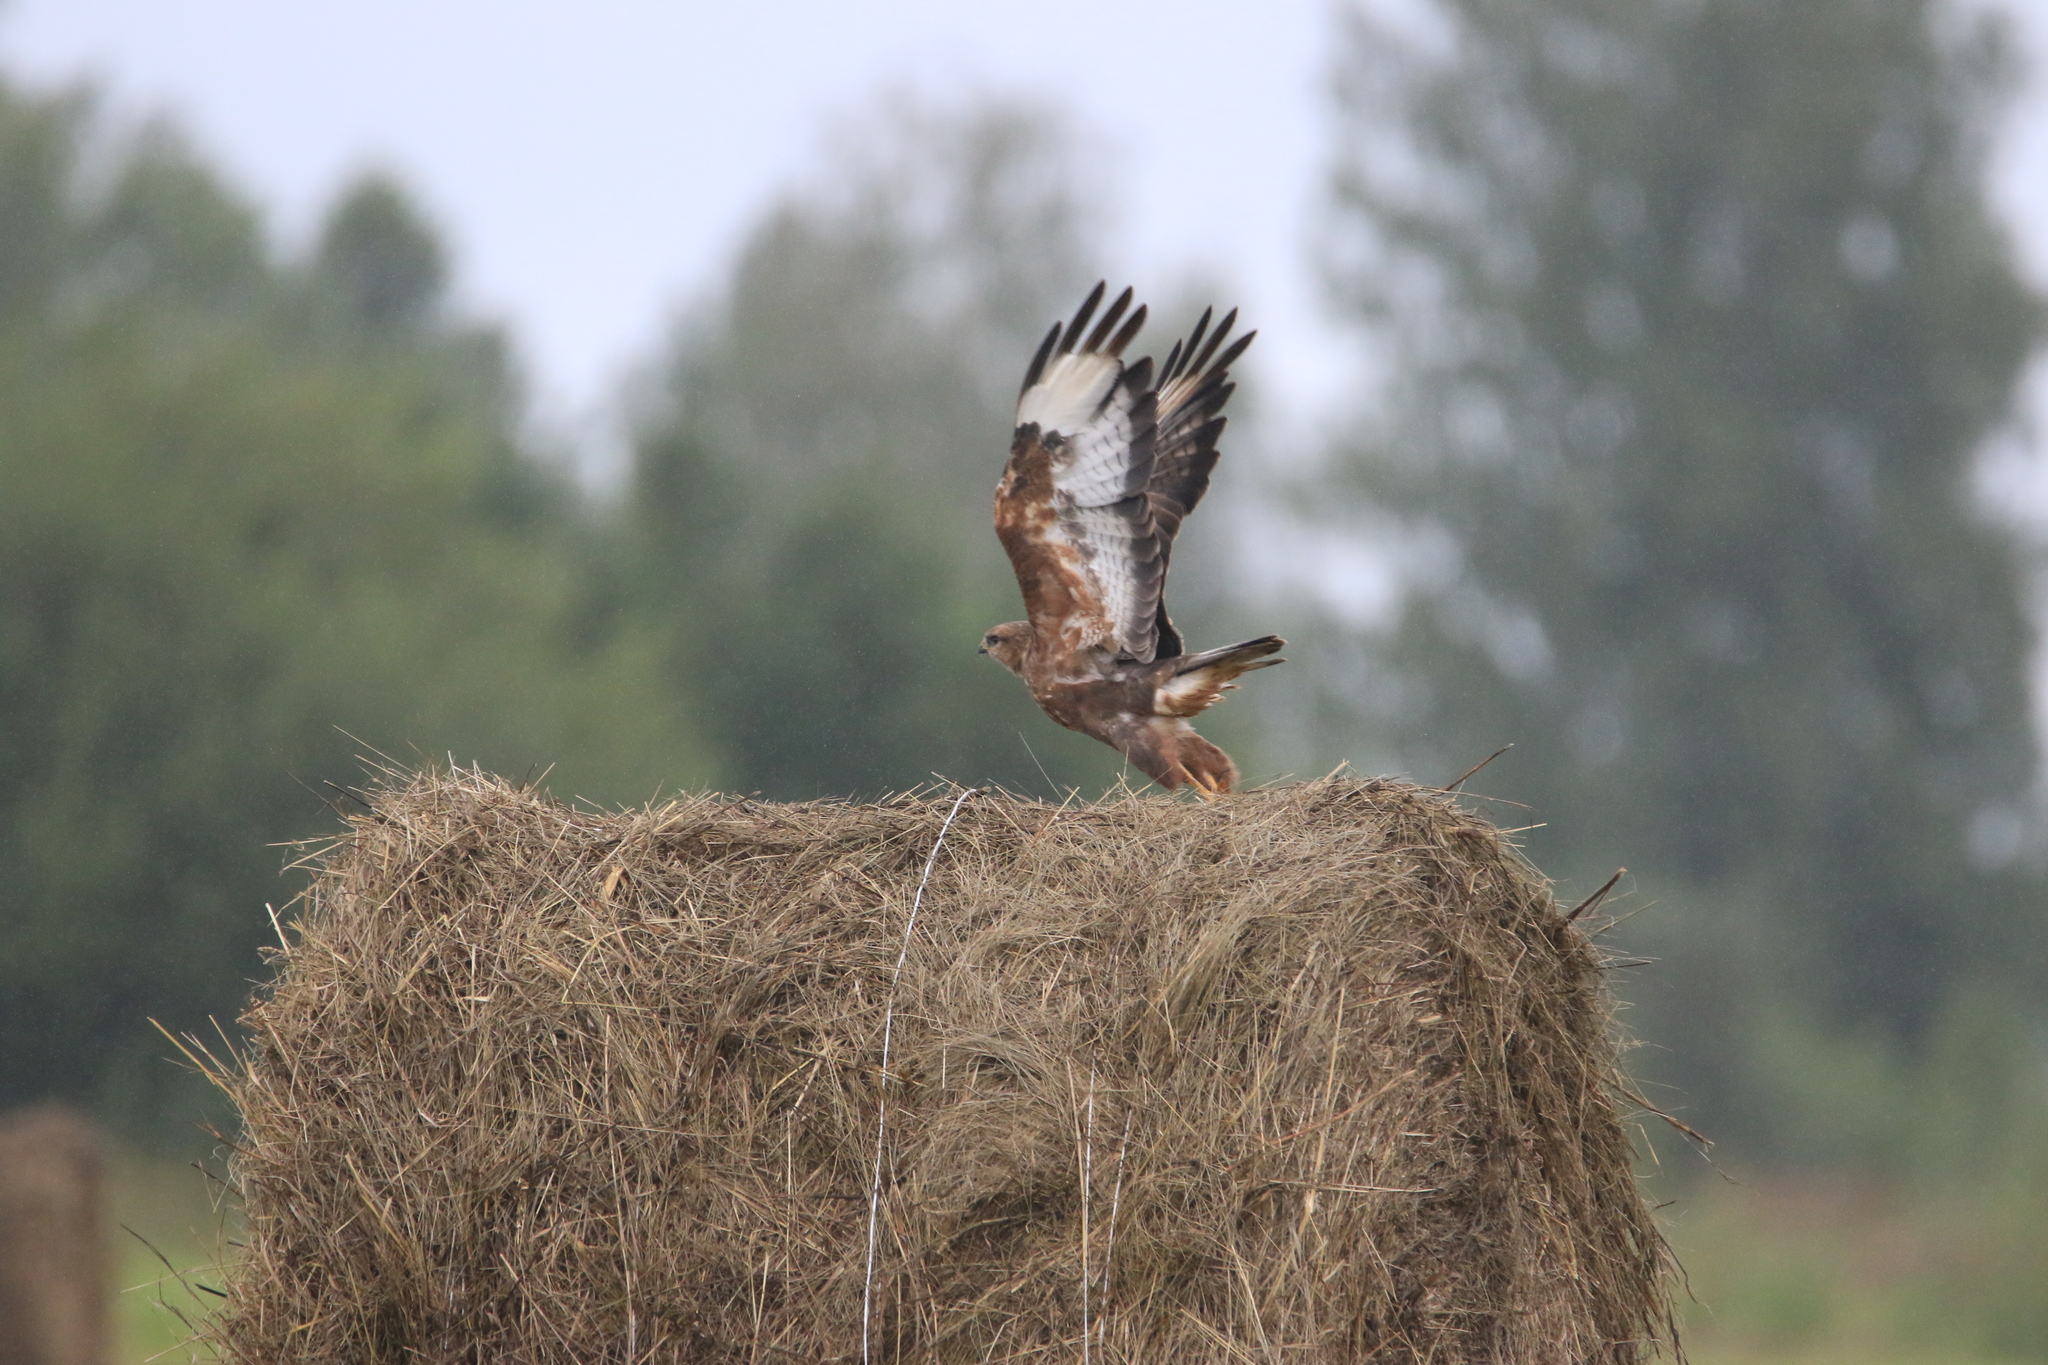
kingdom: Animalia
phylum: Chordata
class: Aves
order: Accipitriformes
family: Accipitridae
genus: Buteo
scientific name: Buteo buteo
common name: Common buzzard
